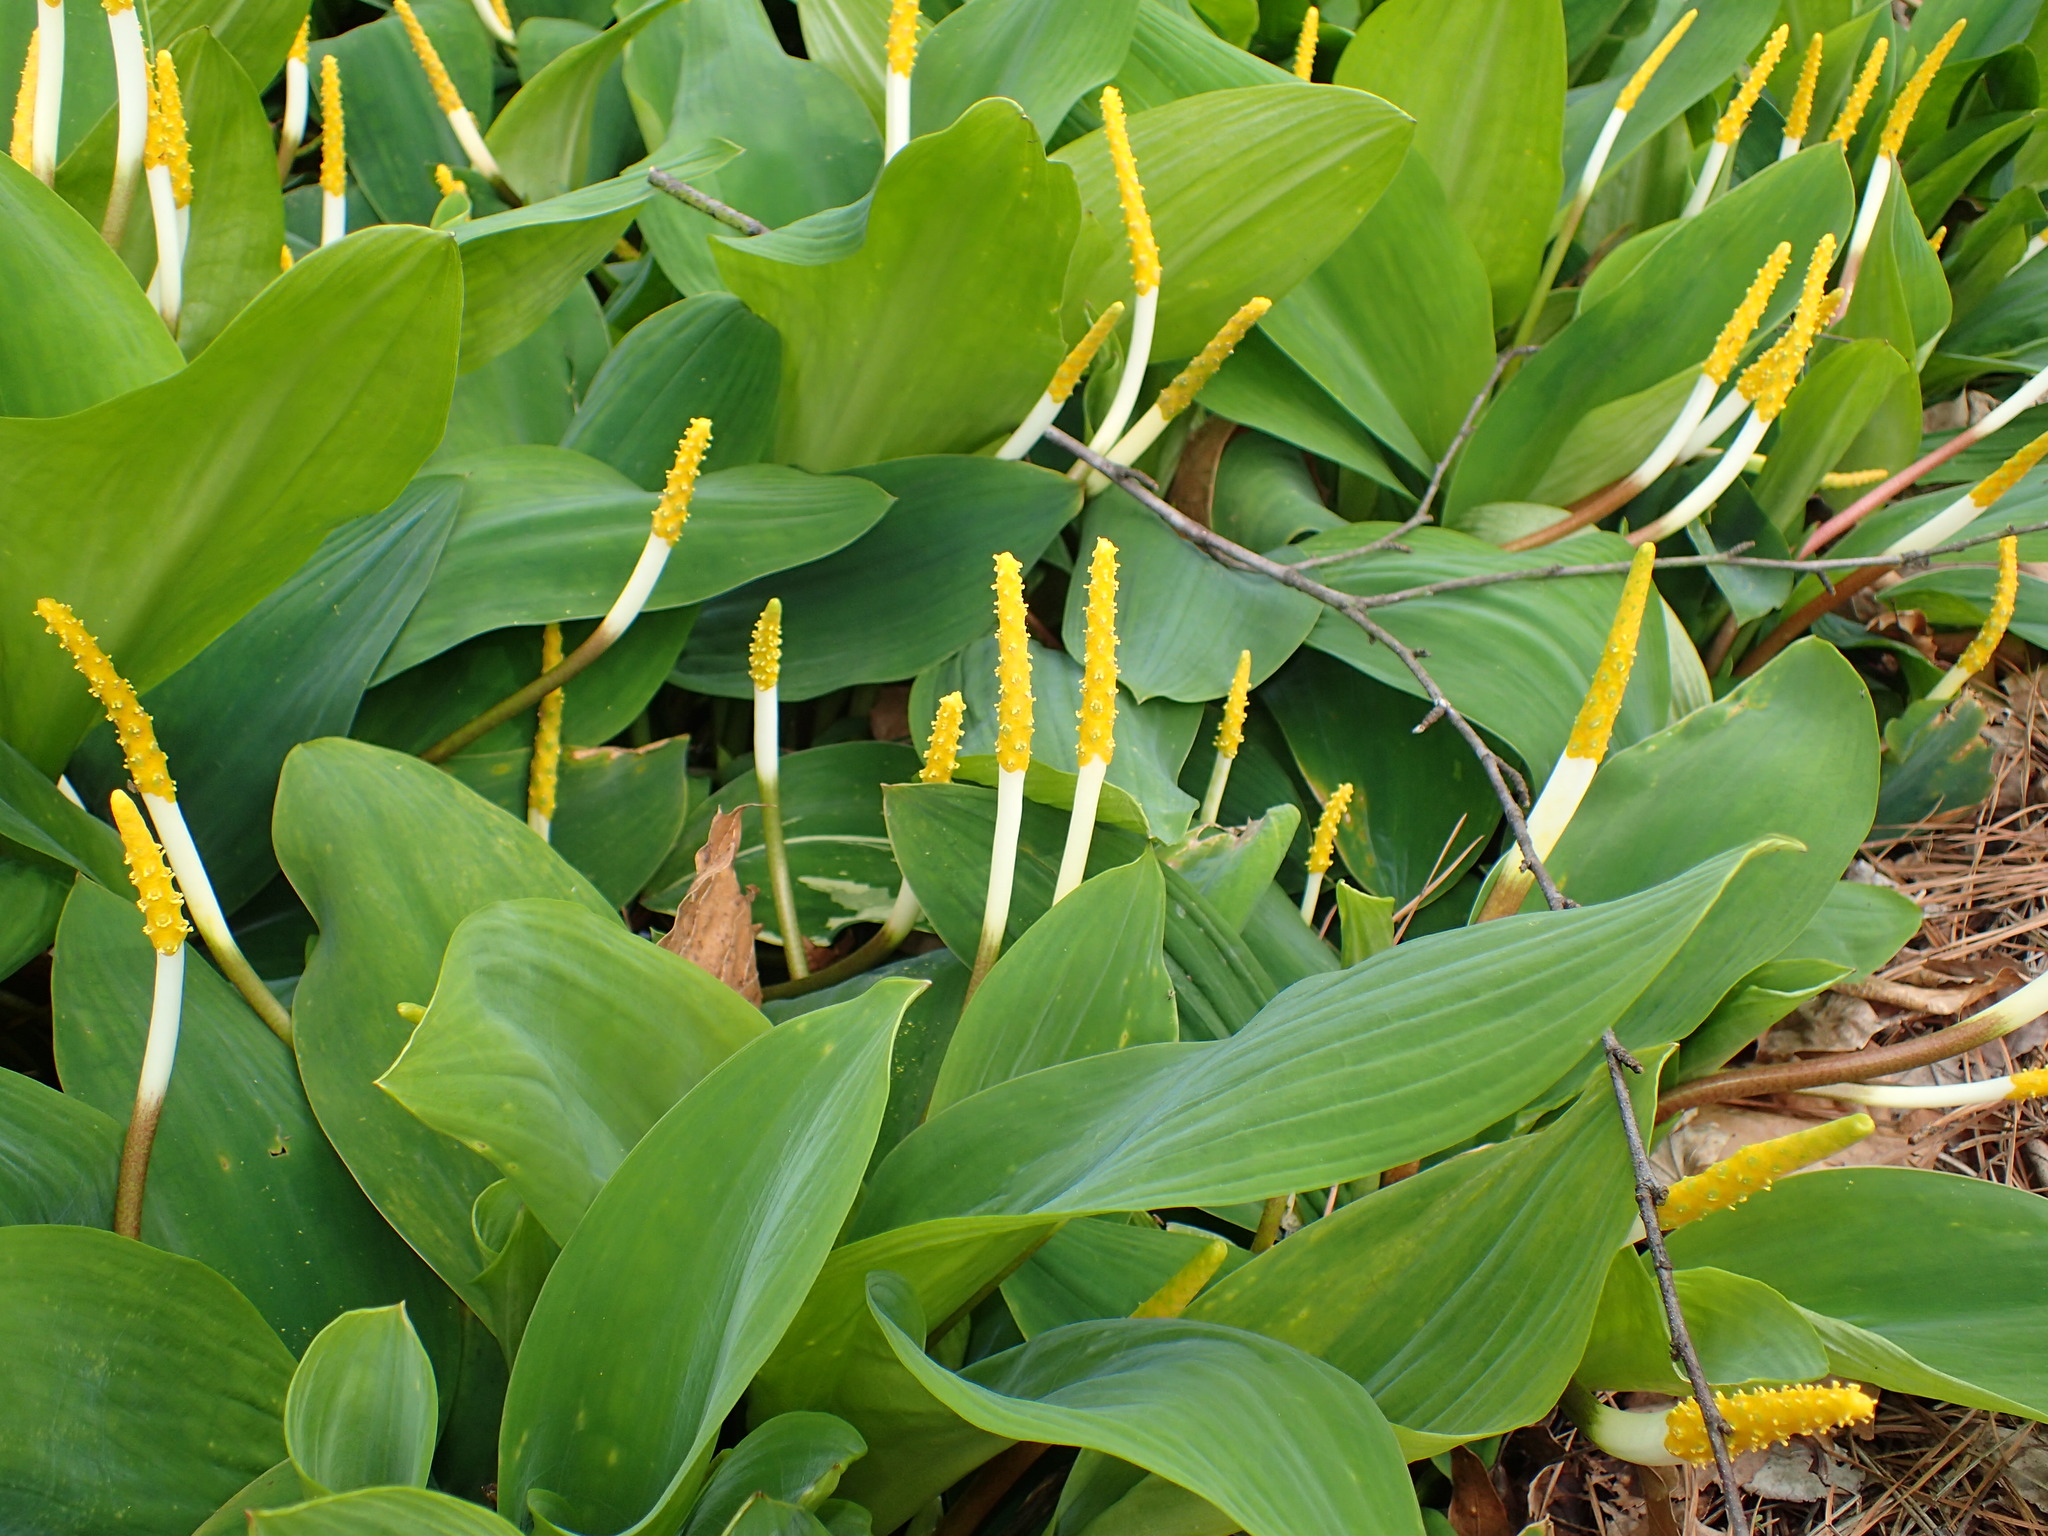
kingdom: Plantae
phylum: Tracheophyta
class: Liliopsida
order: Alismatales
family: Araceae
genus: Orontium
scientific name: Orontium aquaticum
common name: Golden-club
